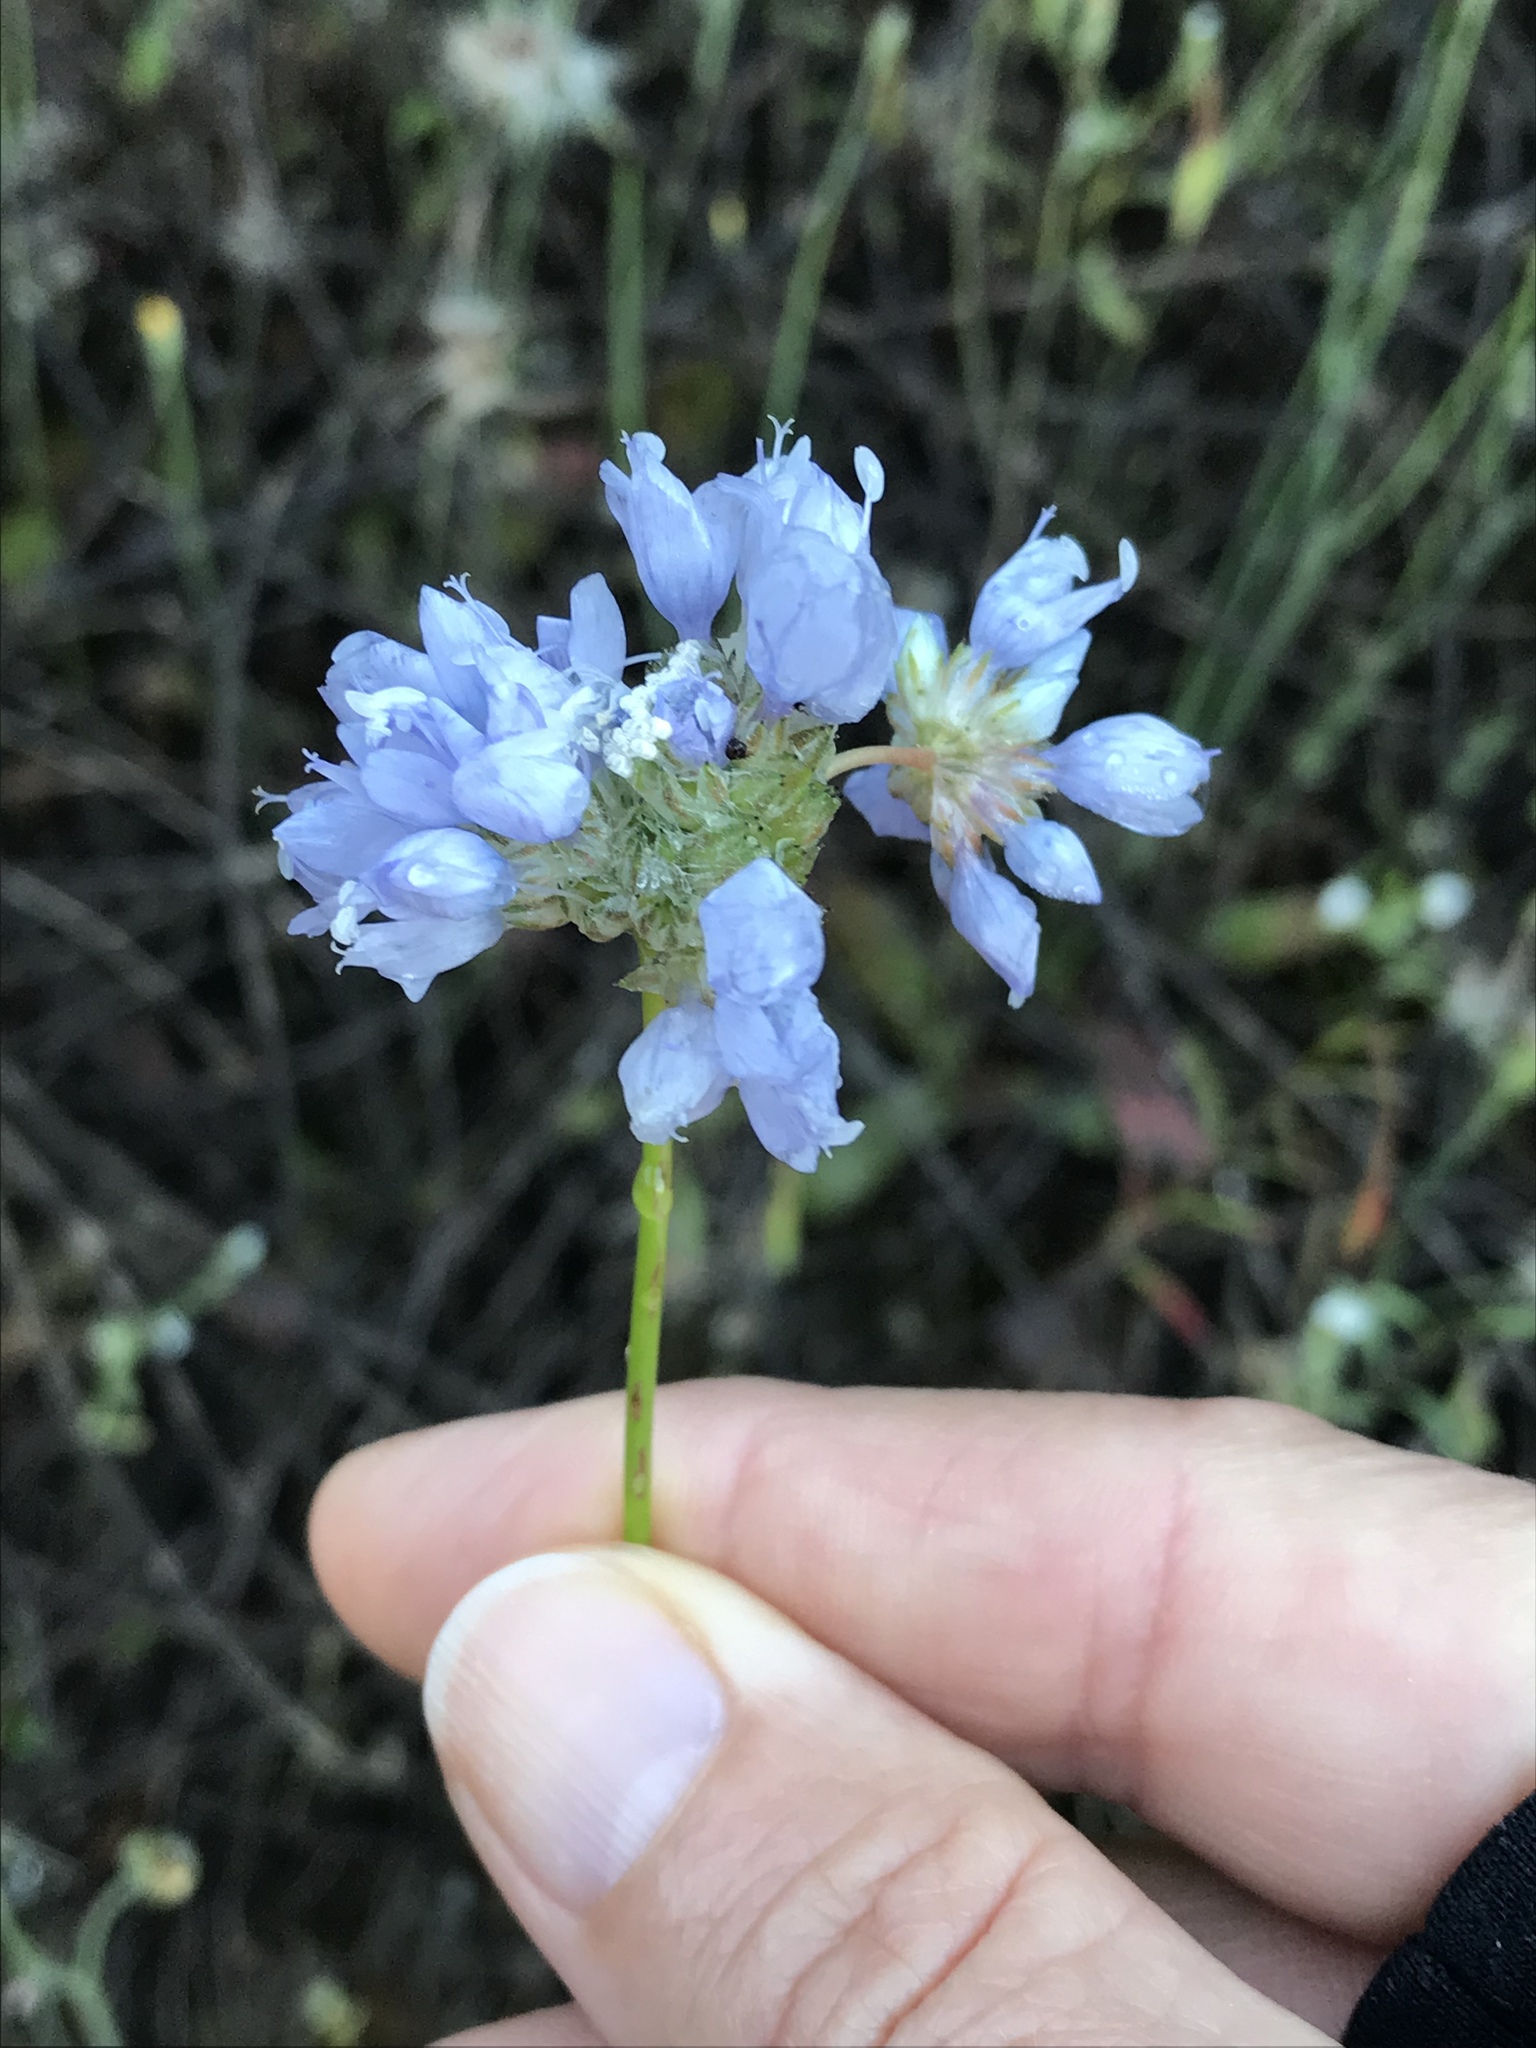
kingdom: Plantae
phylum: Tracheophyta
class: Magnoliopsida
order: Ericales
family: Polemoniaceae
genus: Gilia
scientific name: Gilia capitata
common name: Bluehead gilia
